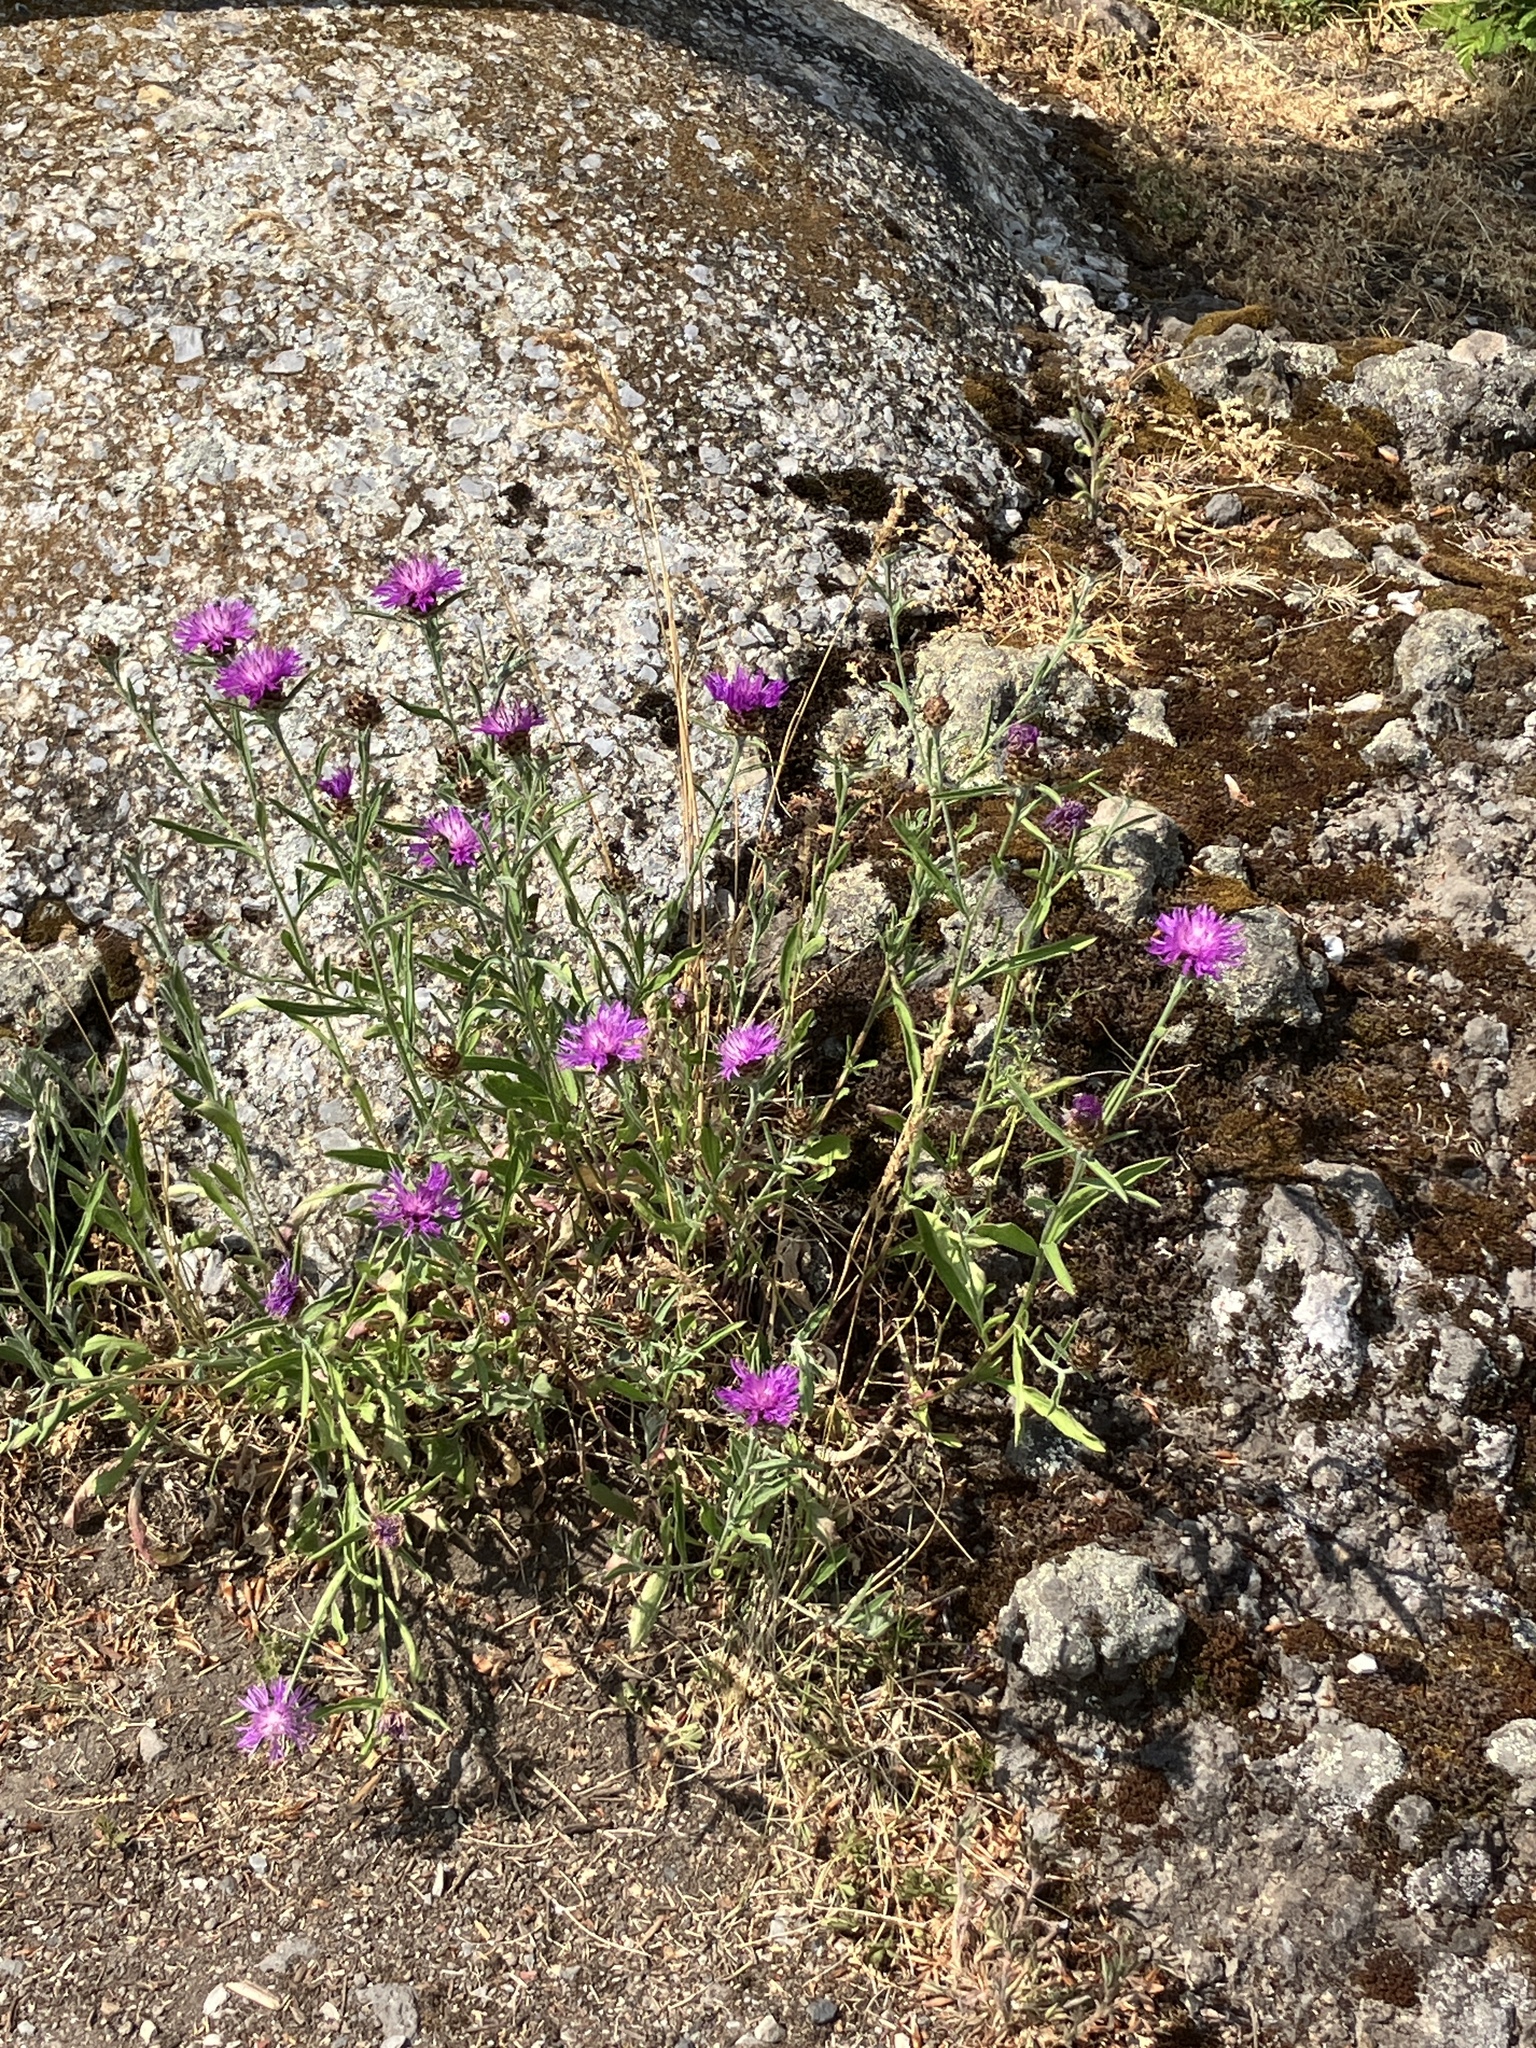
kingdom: Plantae
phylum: Tracheophyta
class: Magnoliopsida
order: Asterales
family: Asteraceae
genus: Centaurea
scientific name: Centaurea jacea
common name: Brown knapweed
